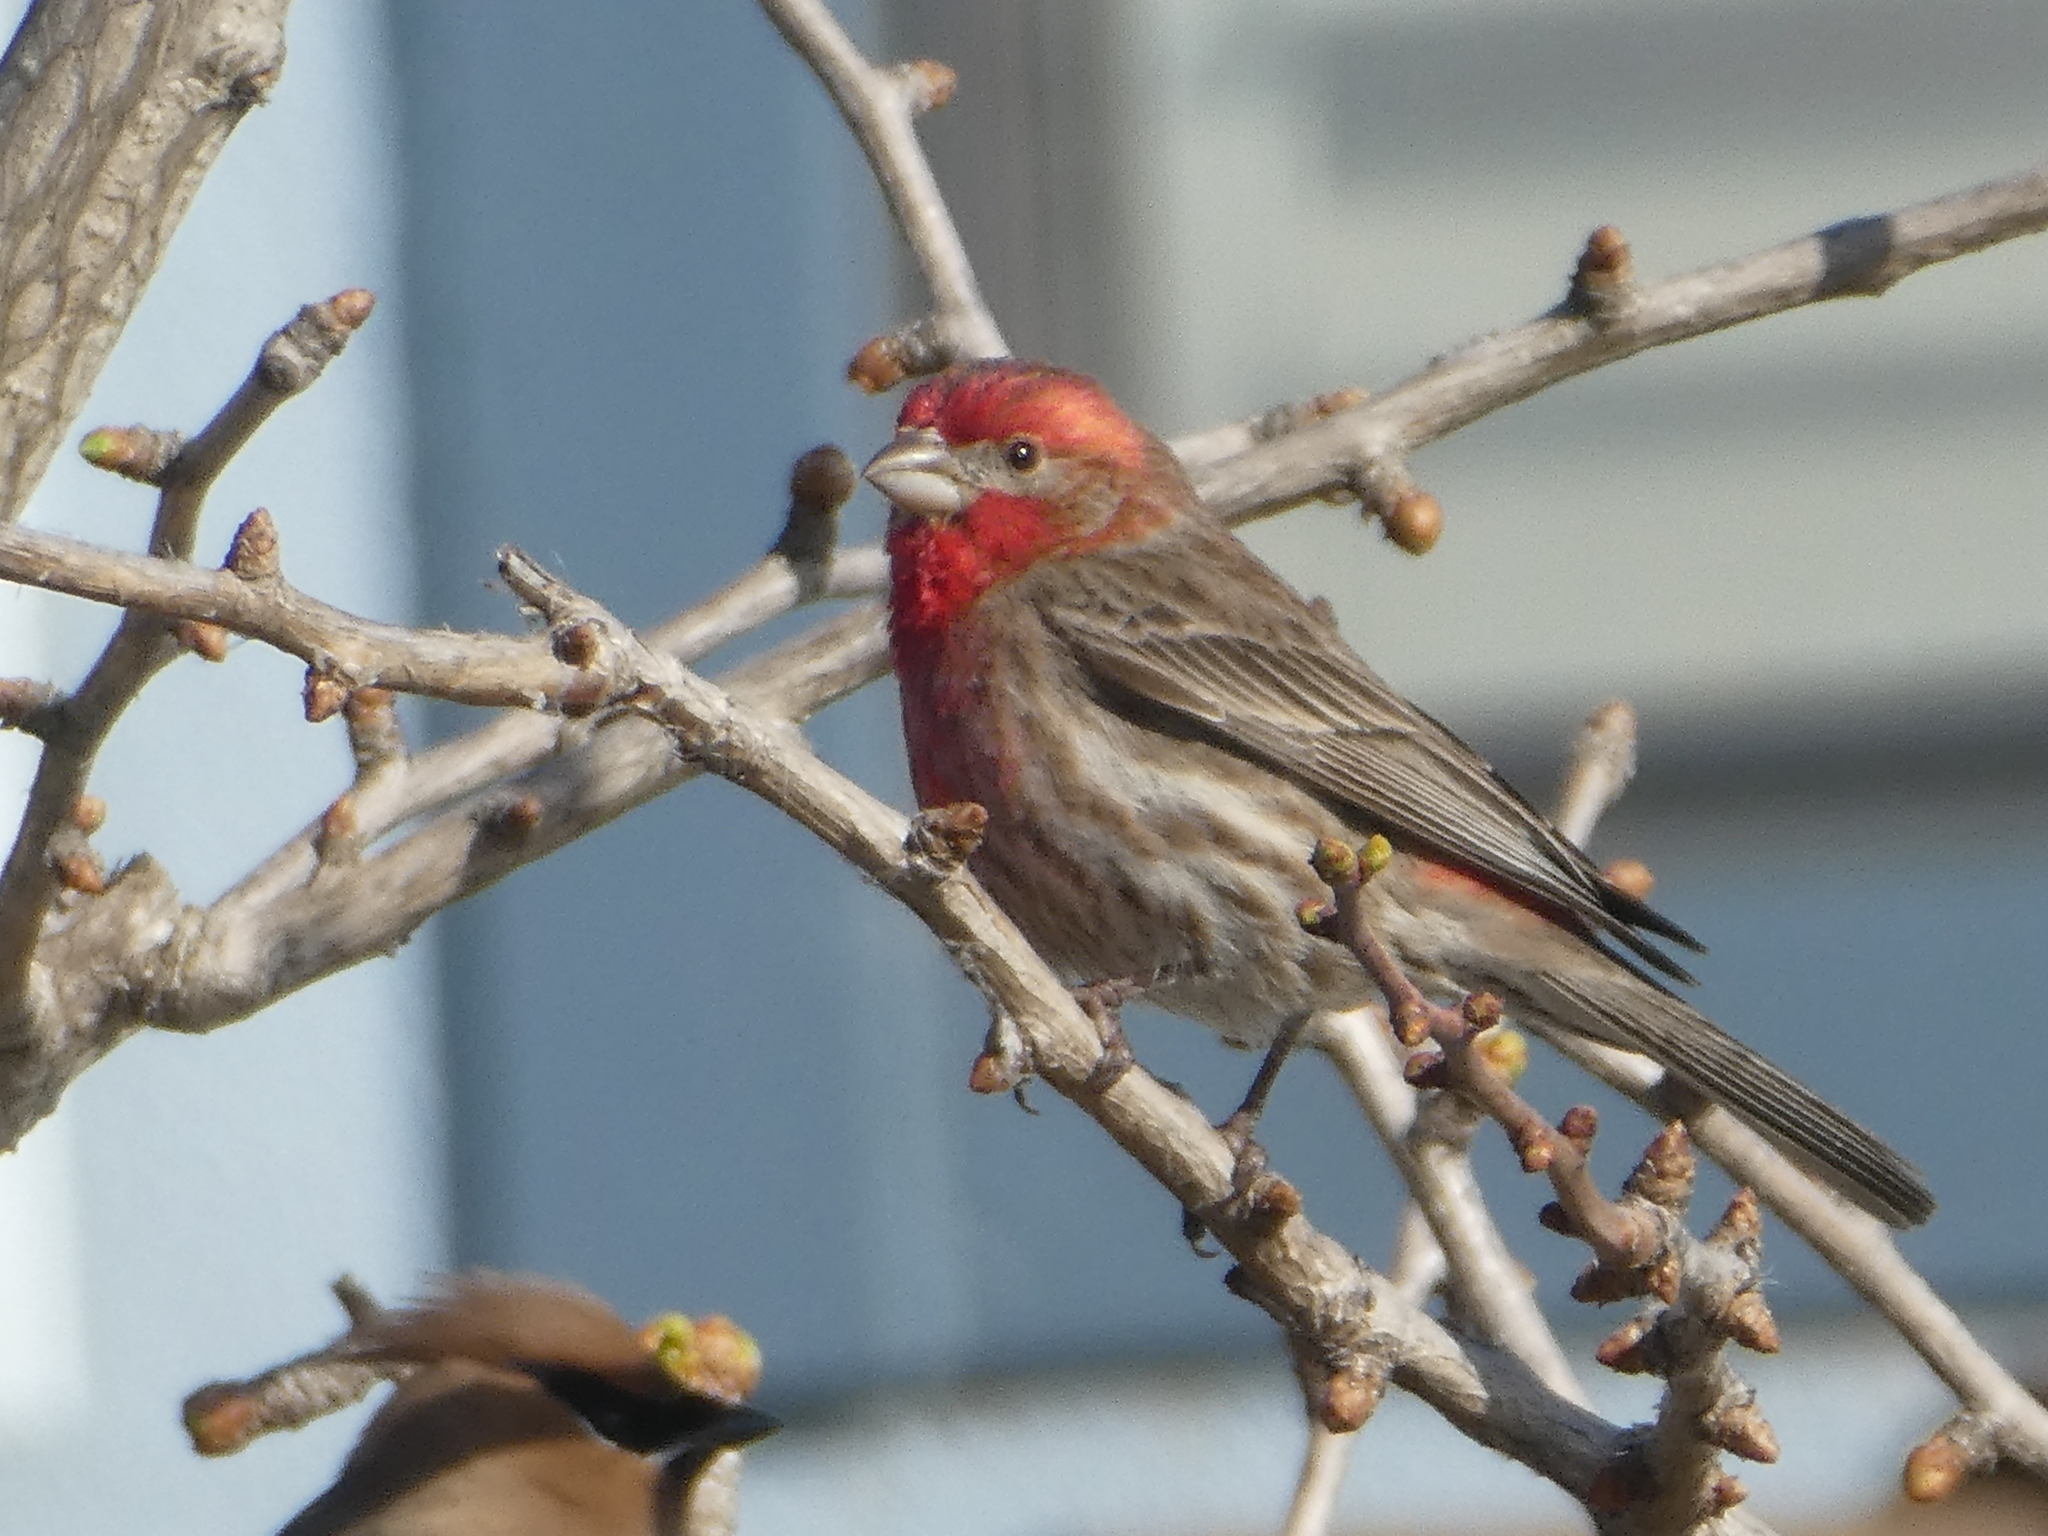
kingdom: Animalia
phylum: Chordata
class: Aves
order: Passeriformes
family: Fringillidae
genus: Haemorhous
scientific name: Haemorhous mexicanus
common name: House finch
